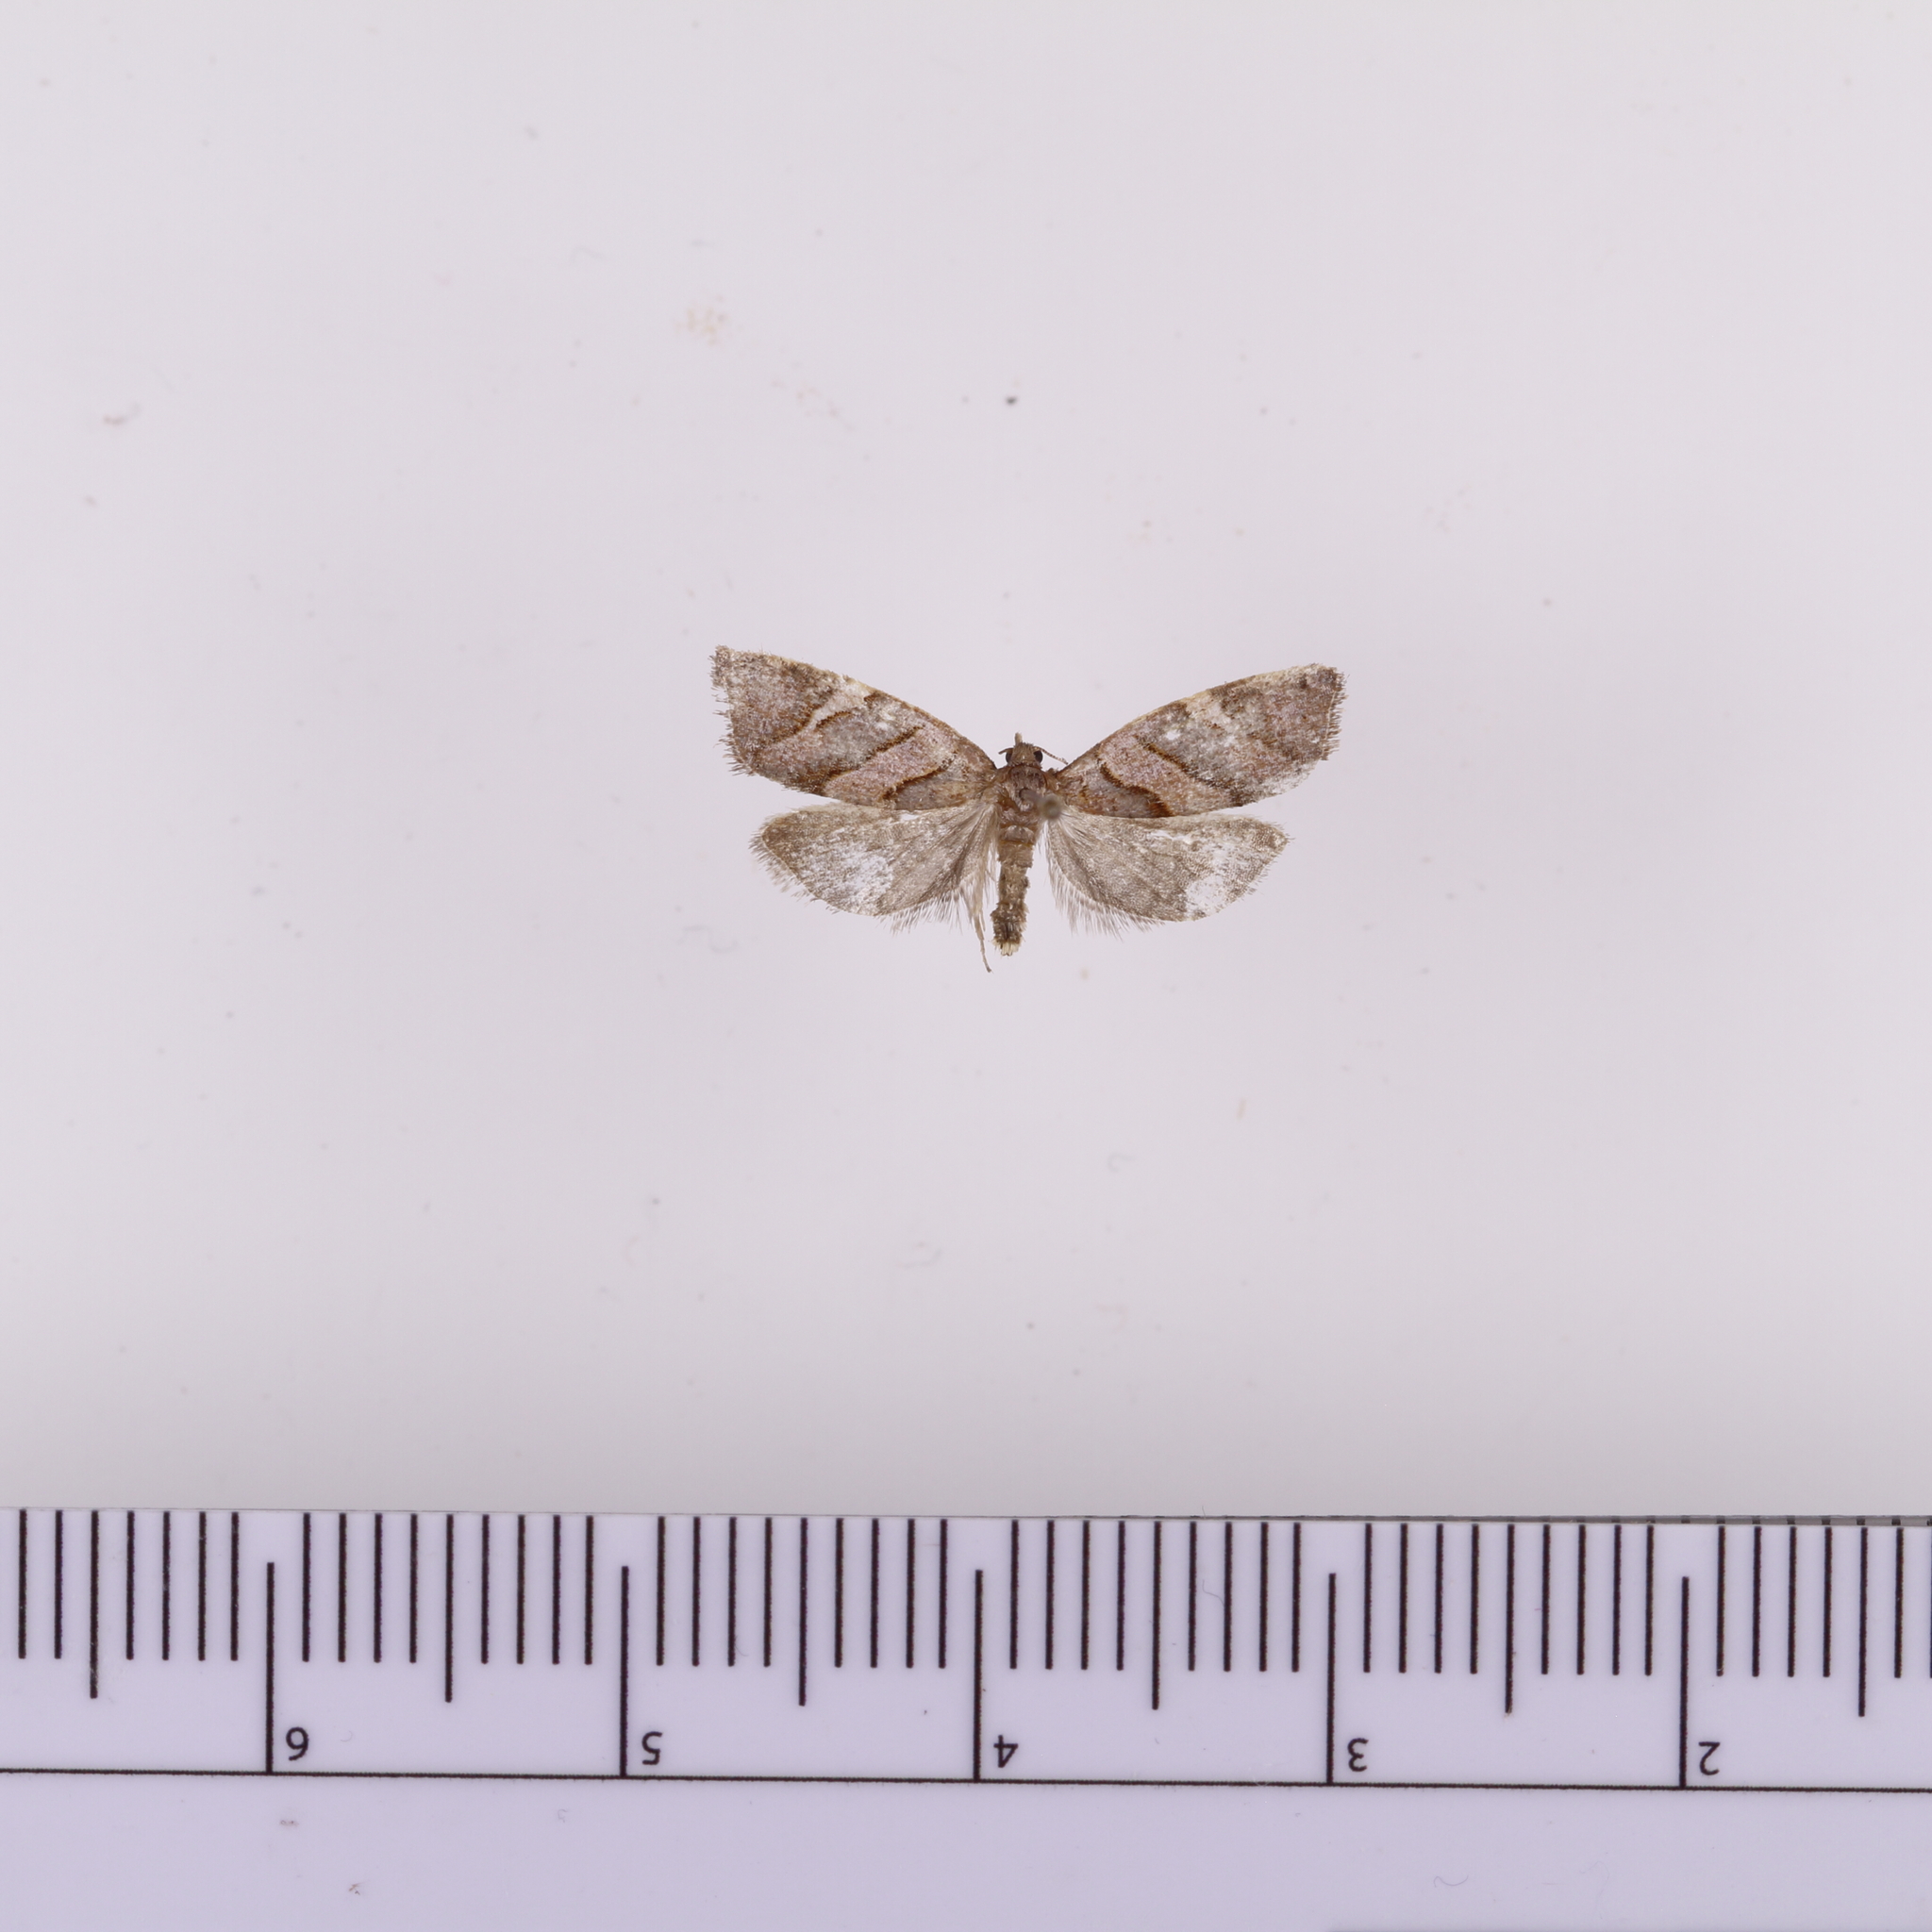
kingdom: Animalia
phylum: Arthropoda
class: Insecta
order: Lepidoptera
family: Tortricidae
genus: Ecclitica
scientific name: Ecclitica torogramma
